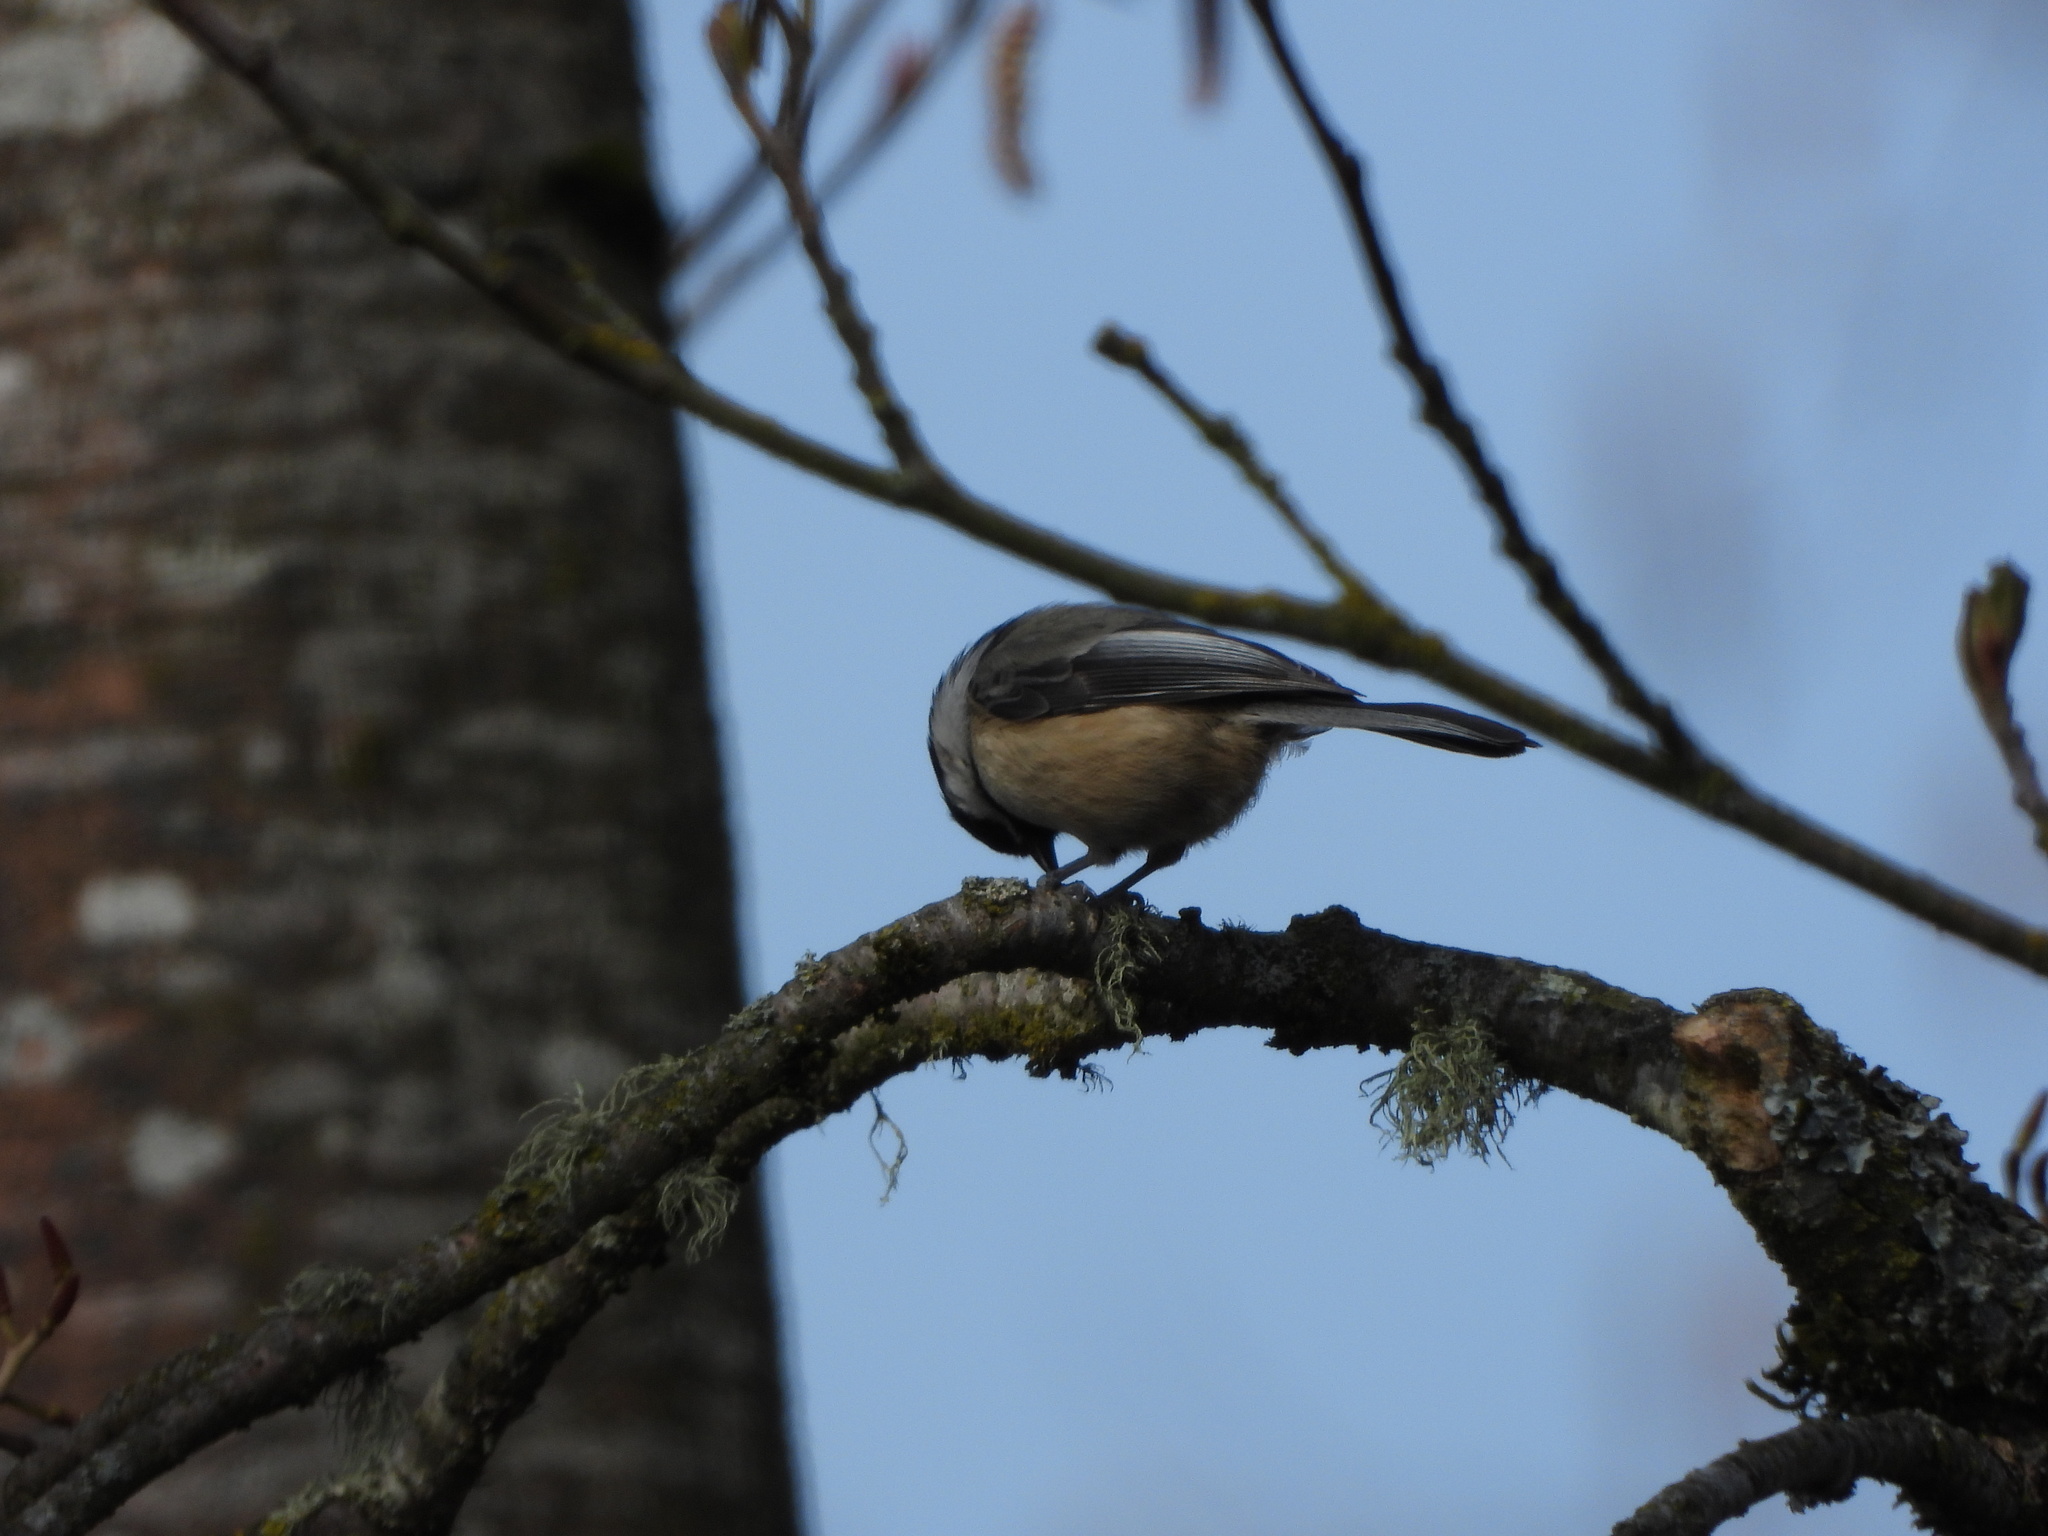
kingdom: Animalia
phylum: Chordata
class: Aves
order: Passeriformes
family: Paridae
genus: Poecile
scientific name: Poecile atricapillus
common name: Black-capped chickadee
